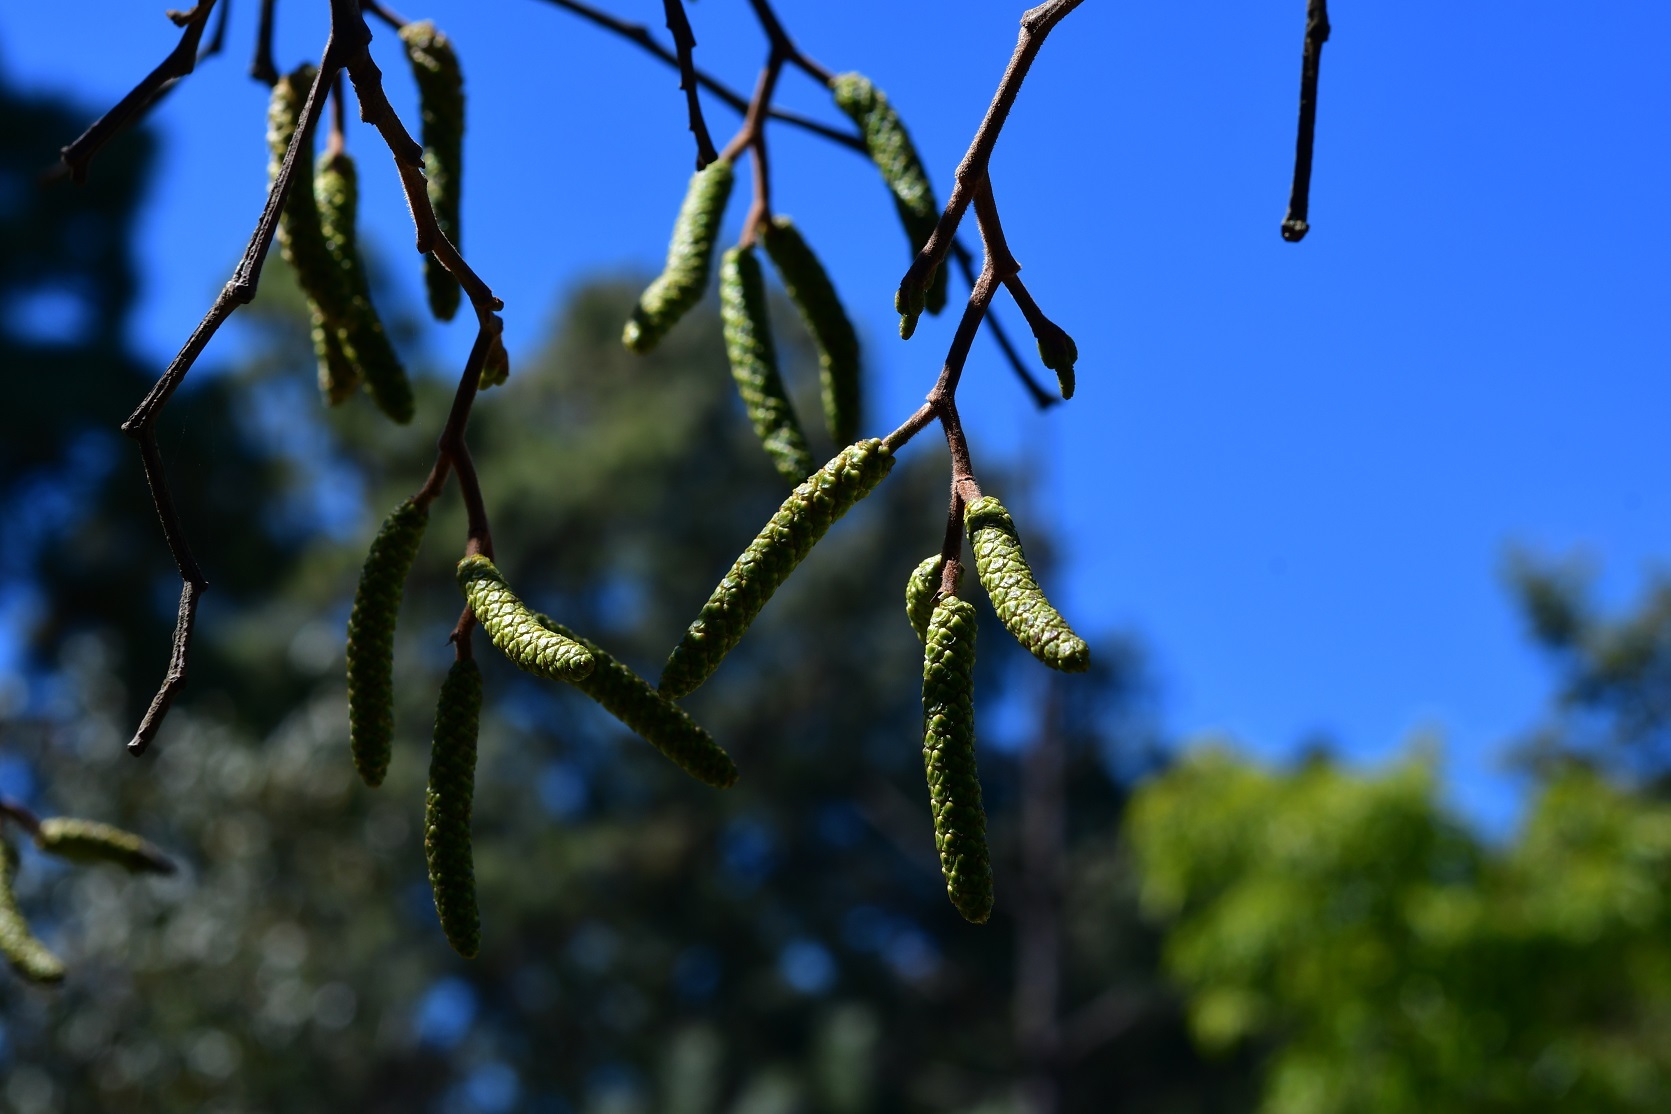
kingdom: Plantae
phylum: Tracheophyta
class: Magnoliopsida
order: Fagales
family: Betulaceae
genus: Alnus
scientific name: Alnus acuminata
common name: Alder
